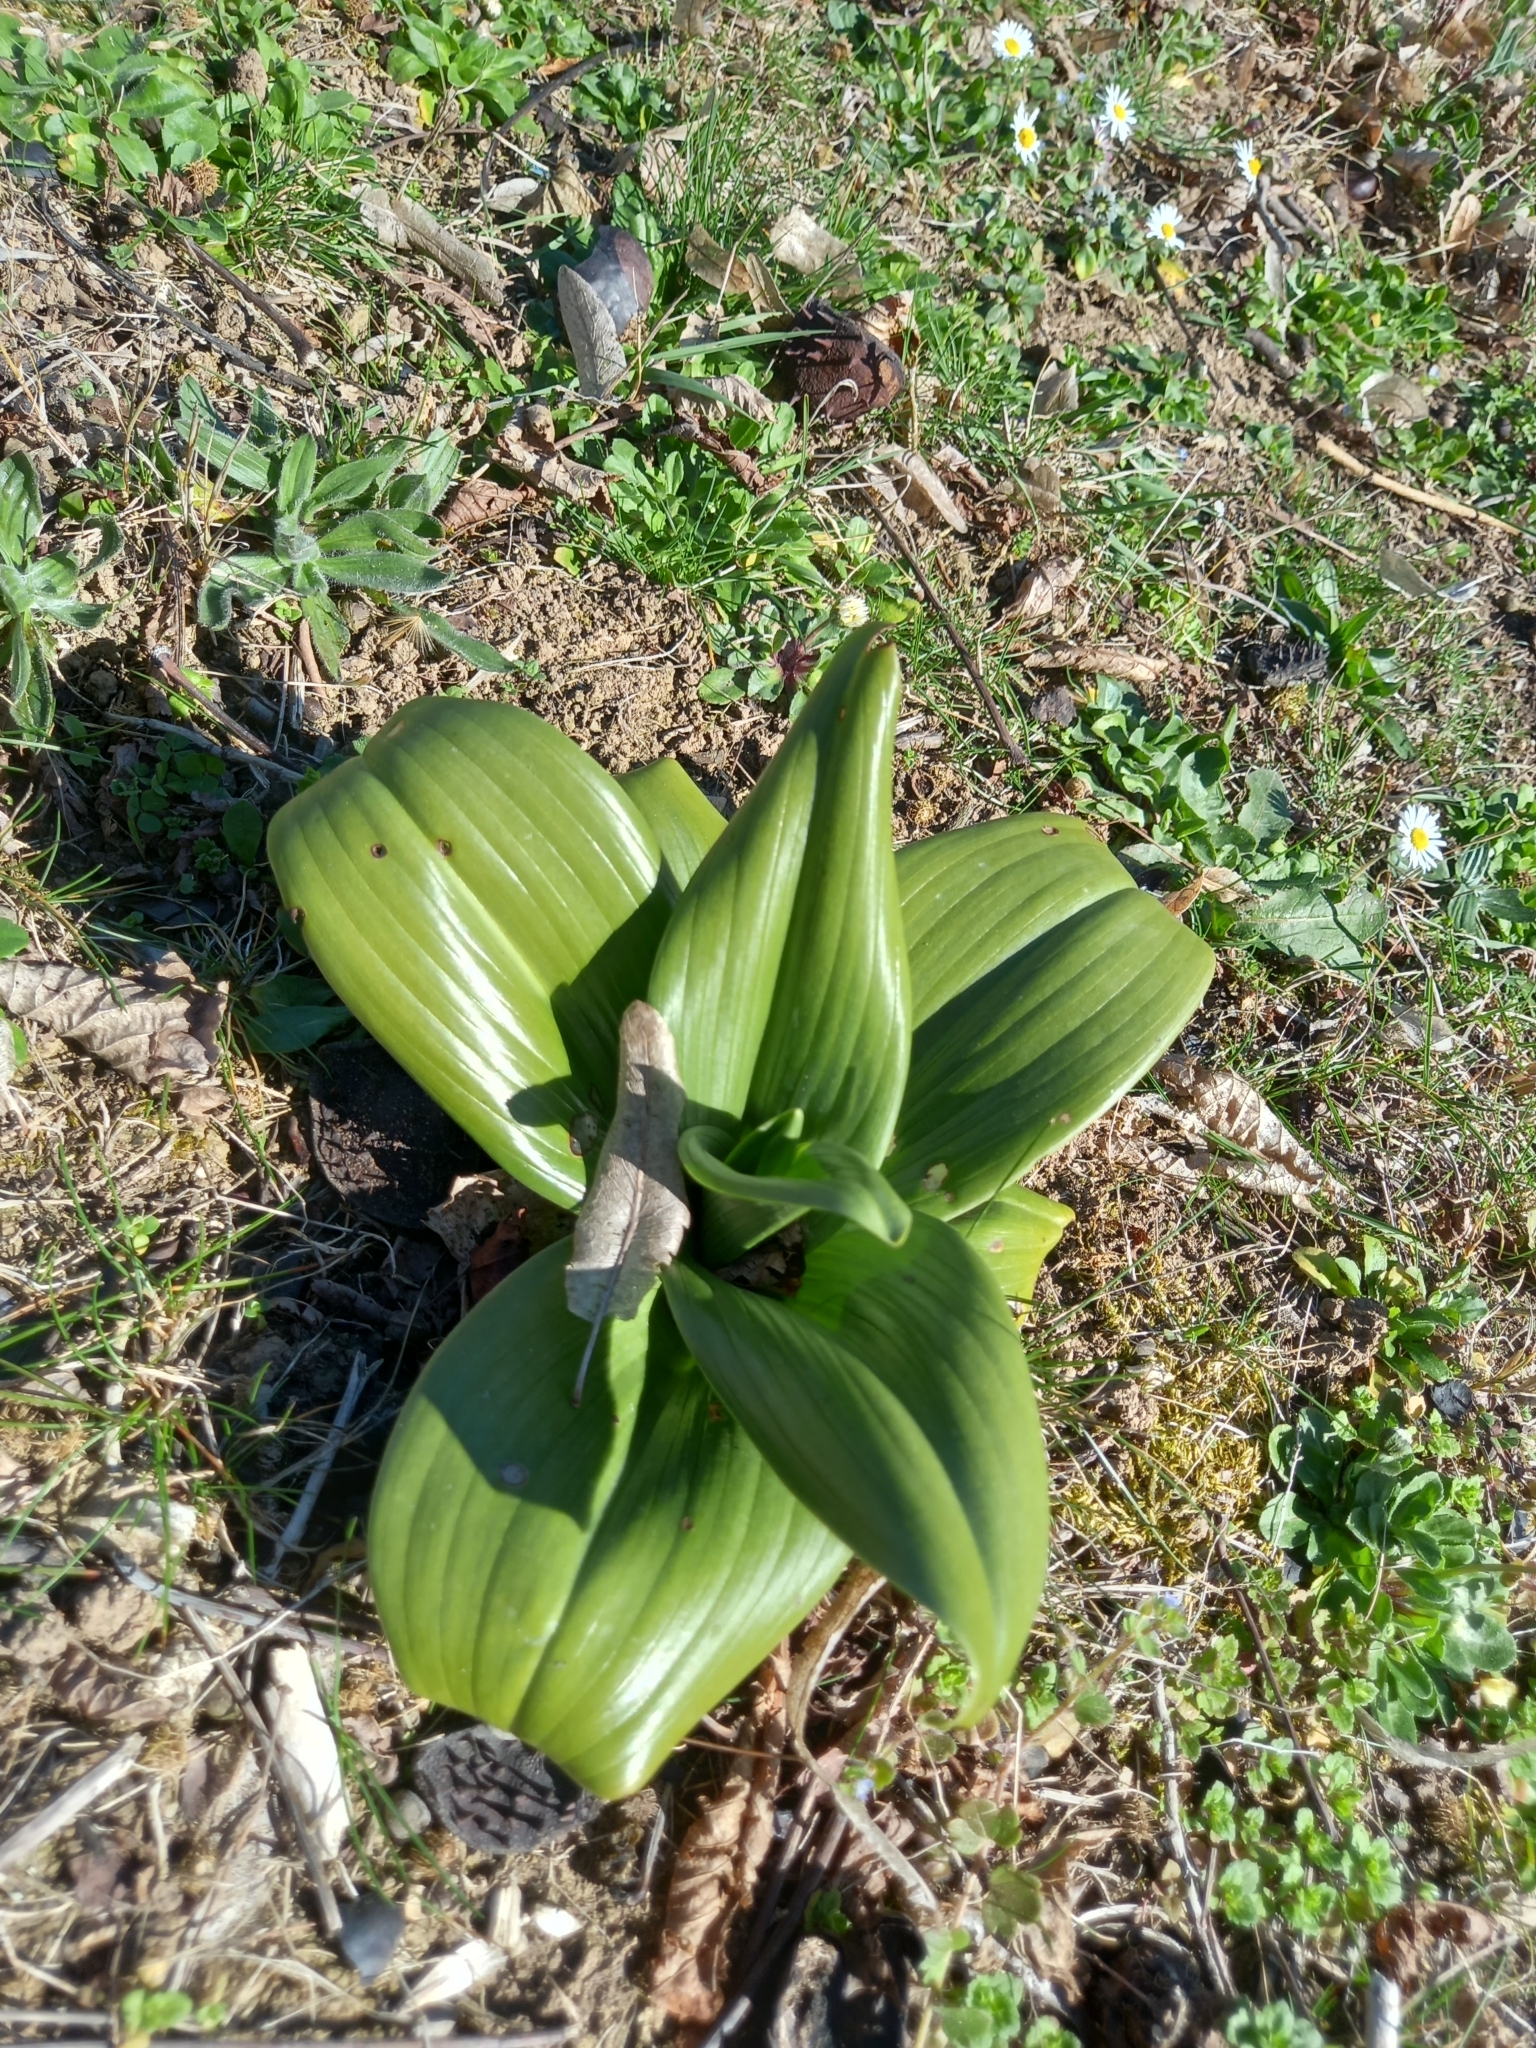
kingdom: Plantae
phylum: Tracheophyta
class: Liliopsida
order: Asparagales
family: Orchidaceae
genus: Himantoglossum
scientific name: Himantoglossum hircinum
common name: Lizard orchid
